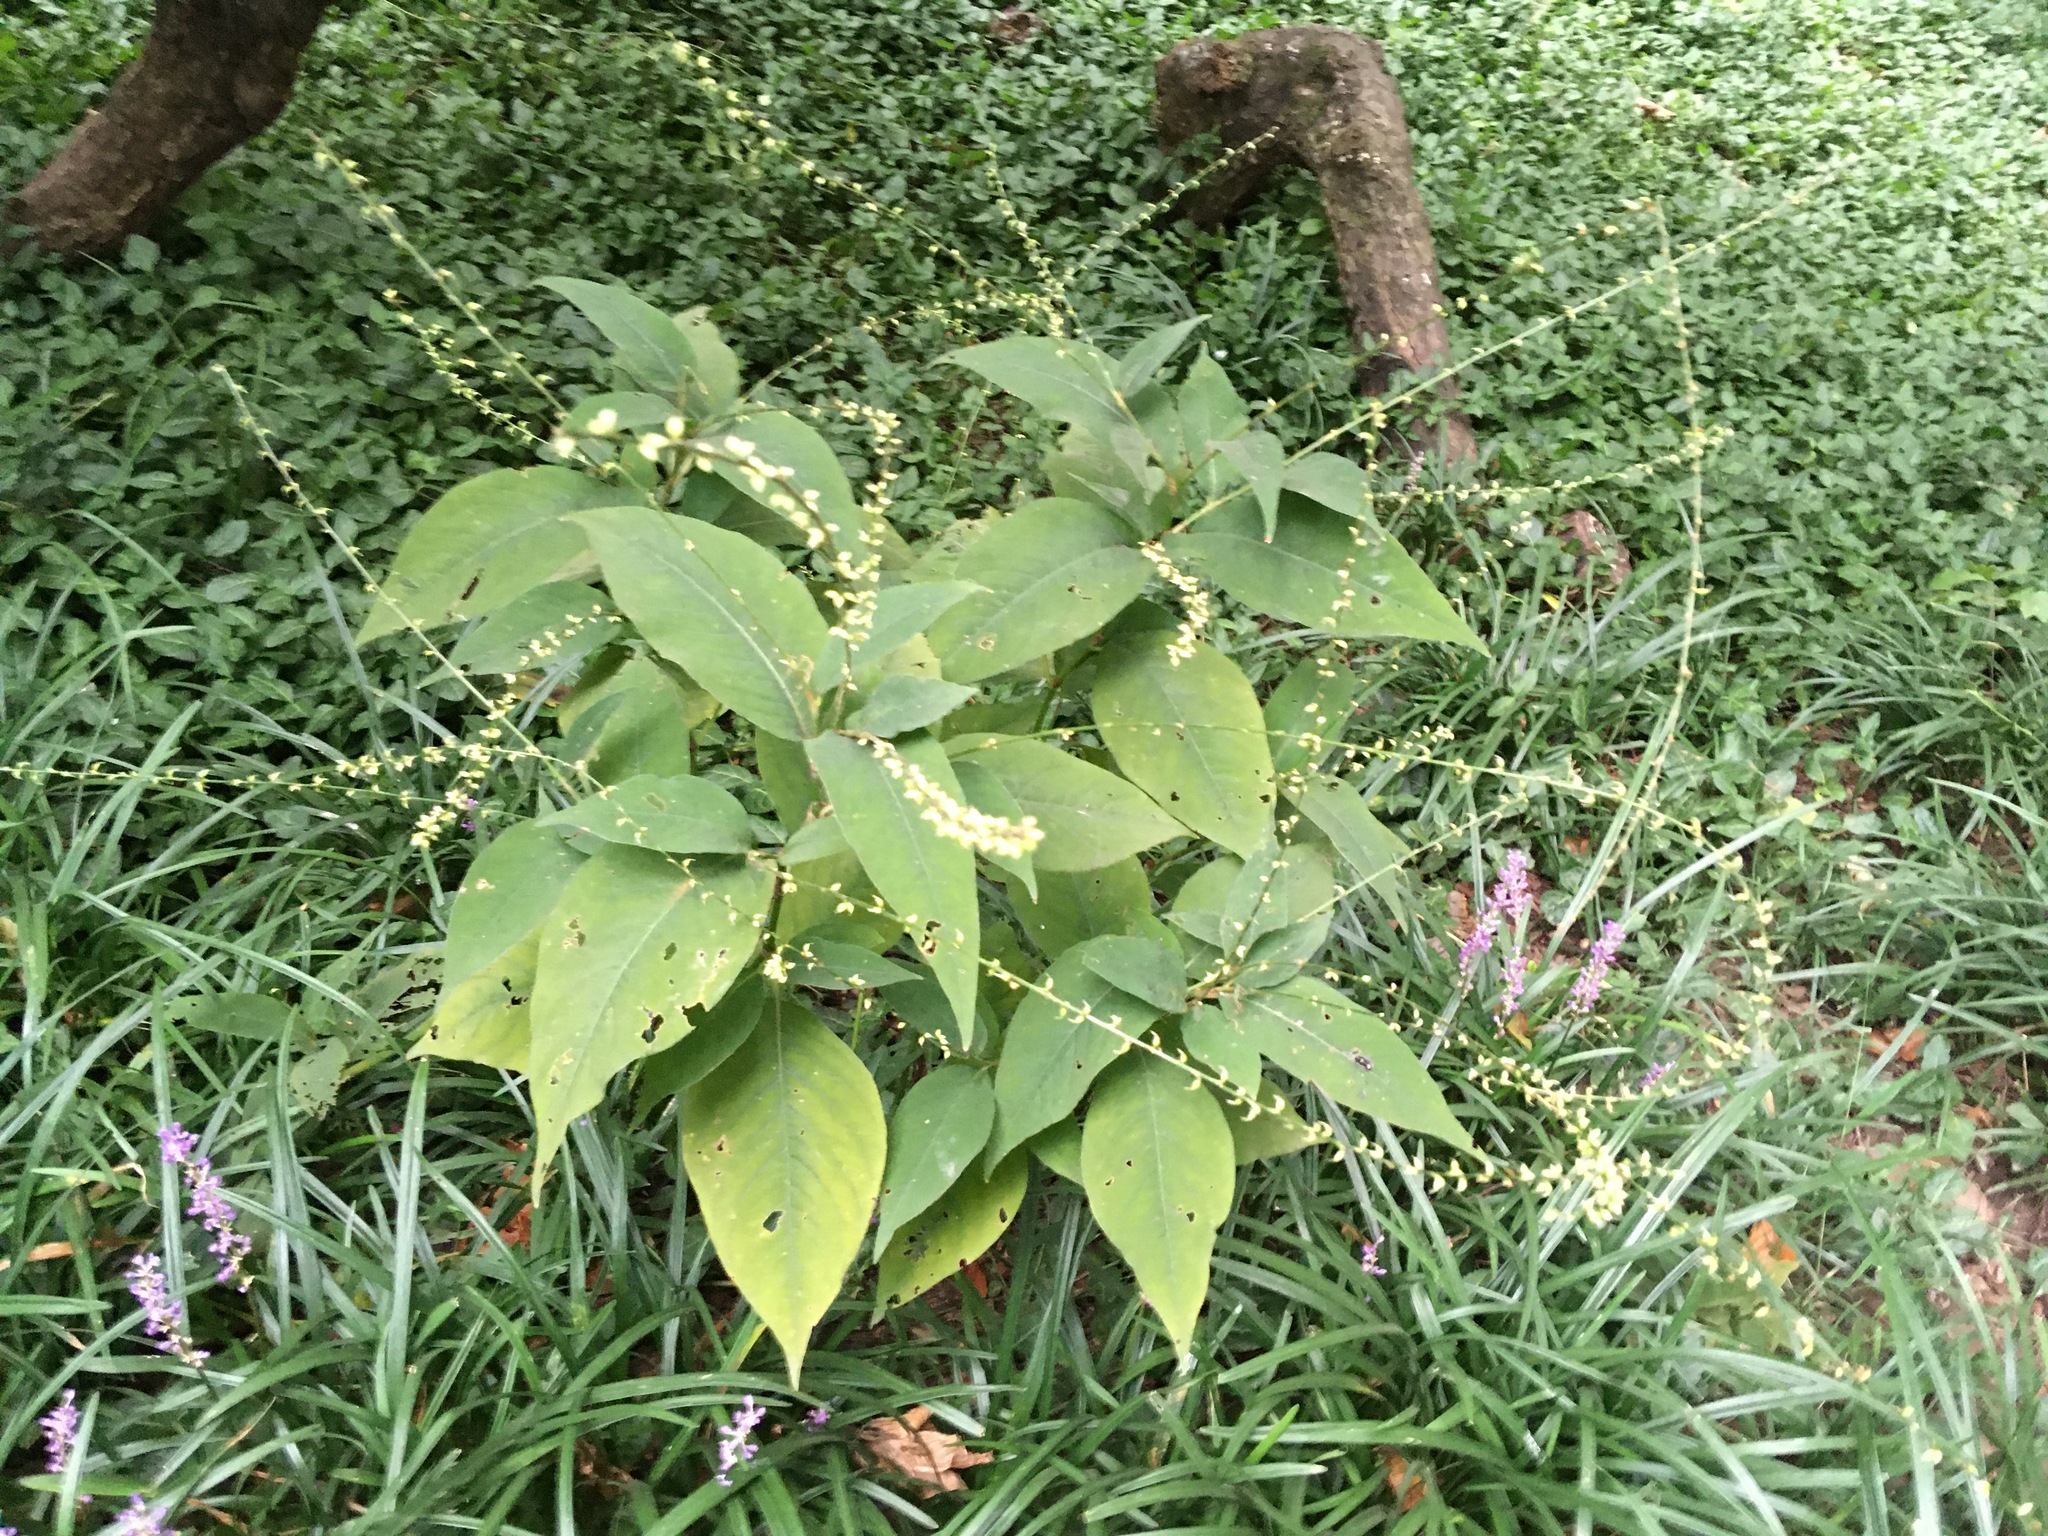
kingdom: Plantae
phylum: Tracheophyta
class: Magnoliopsida
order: Caryophyllales
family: Polygonaceae
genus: Persicaria
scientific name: Persicaria virginiana
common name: Jumpseed
